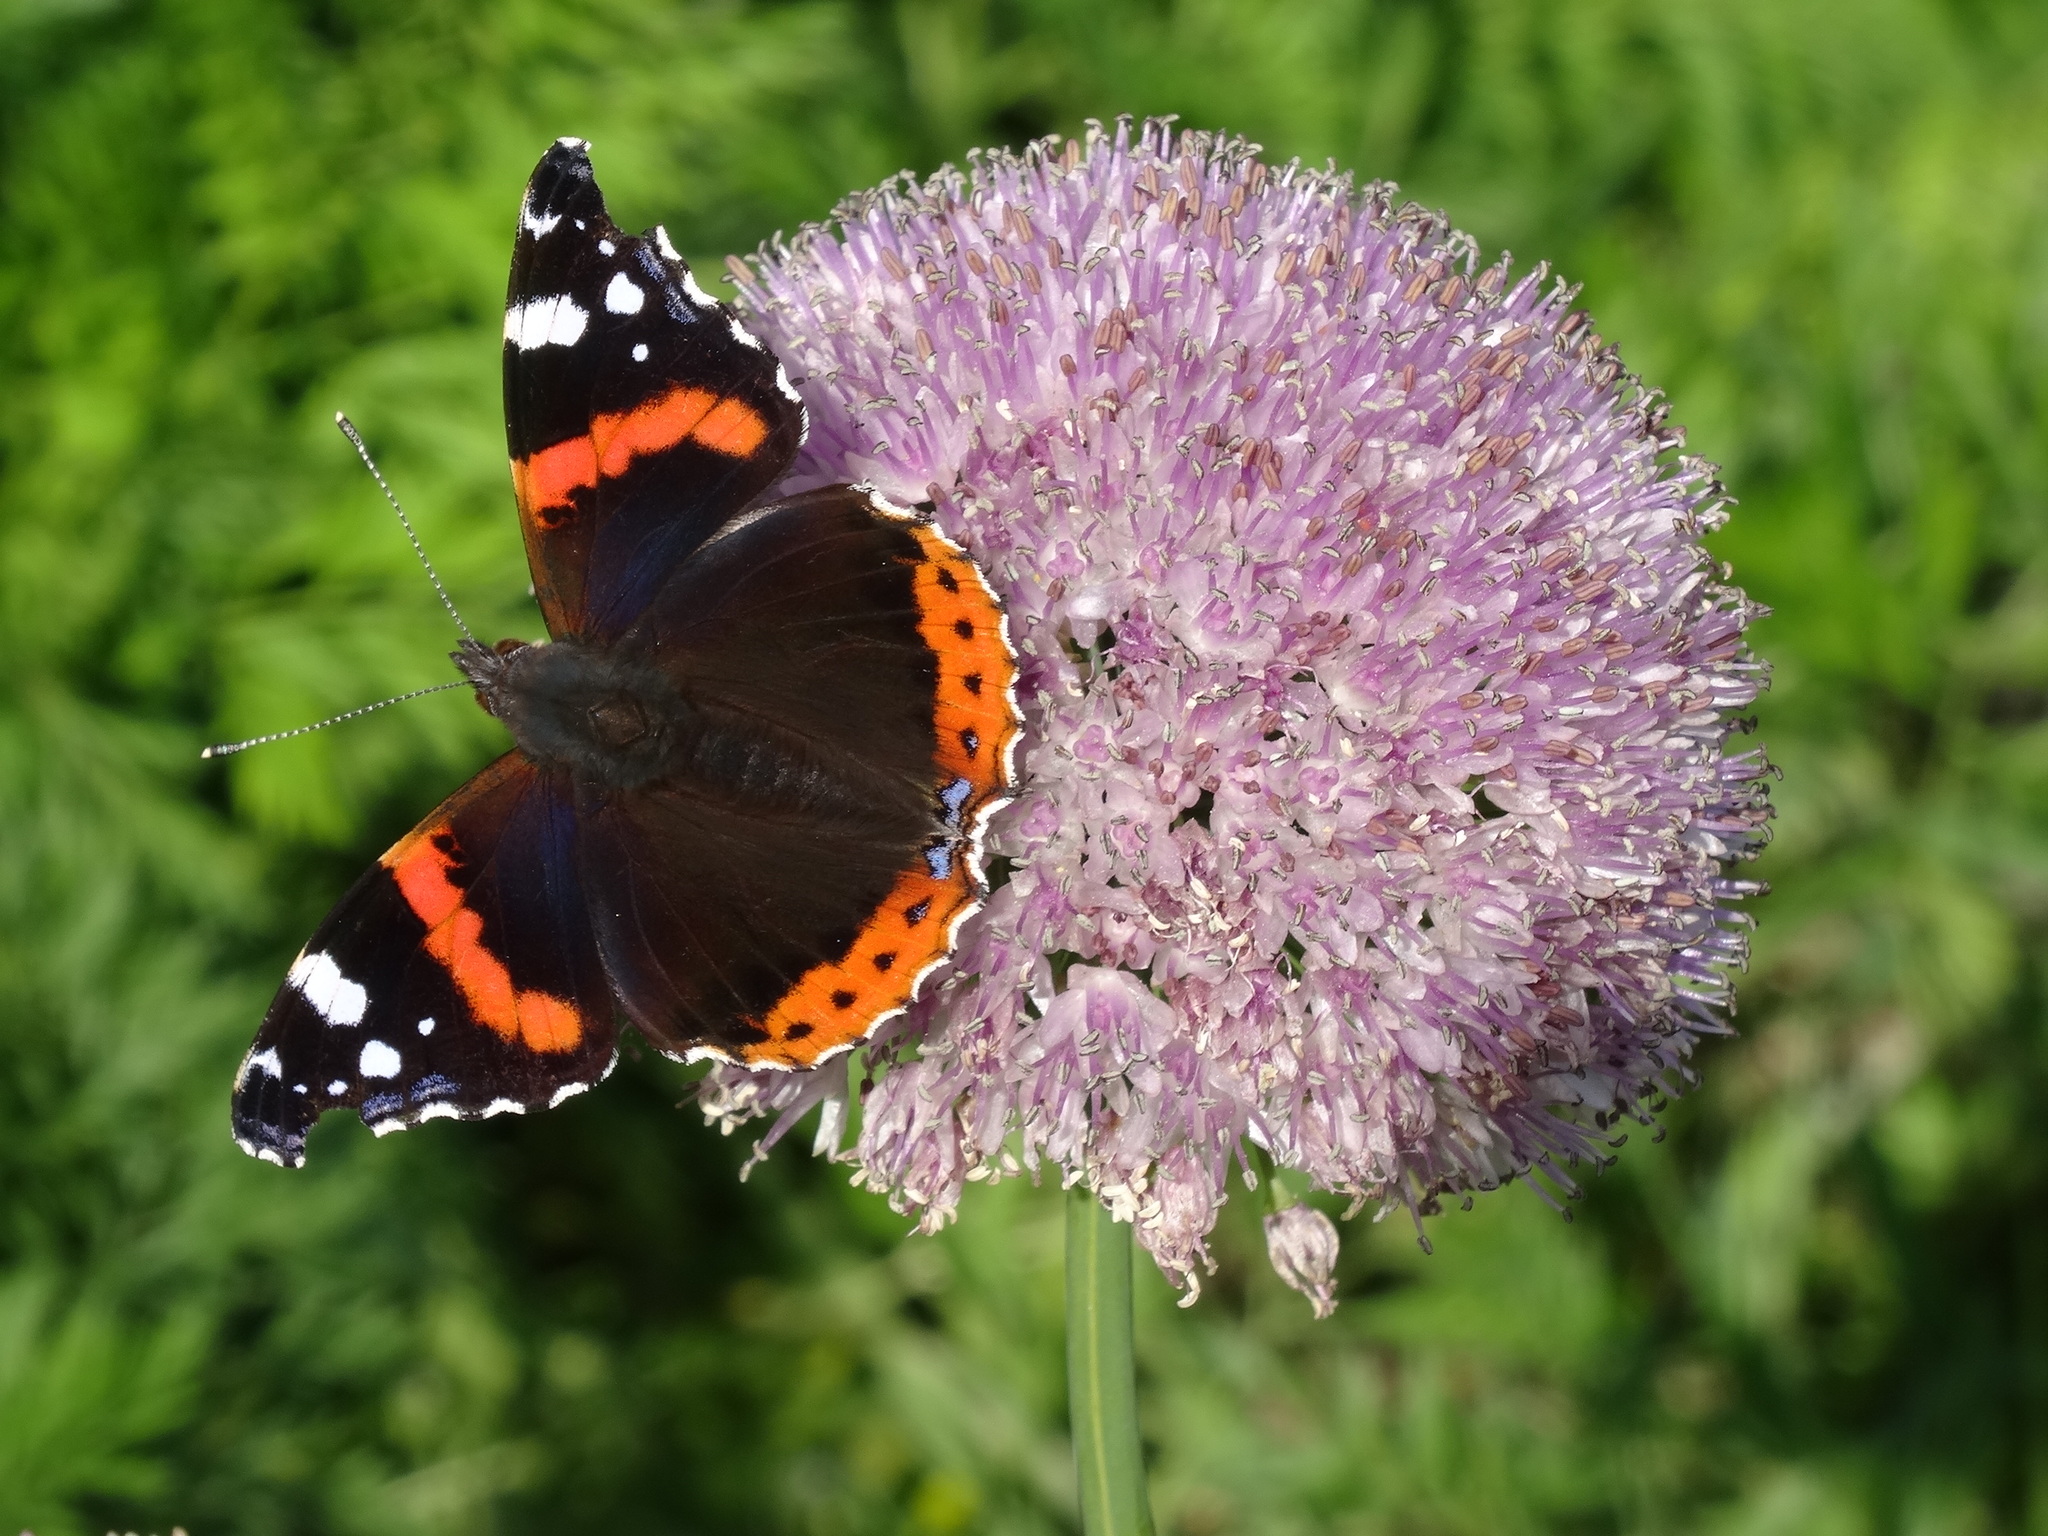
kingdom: Animalia
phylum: Arthropoda
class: Insecta
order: Lepidoptera
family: Nymphalidae
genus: Vanessa
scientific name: Vanessa atalanta
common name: Red admiral
